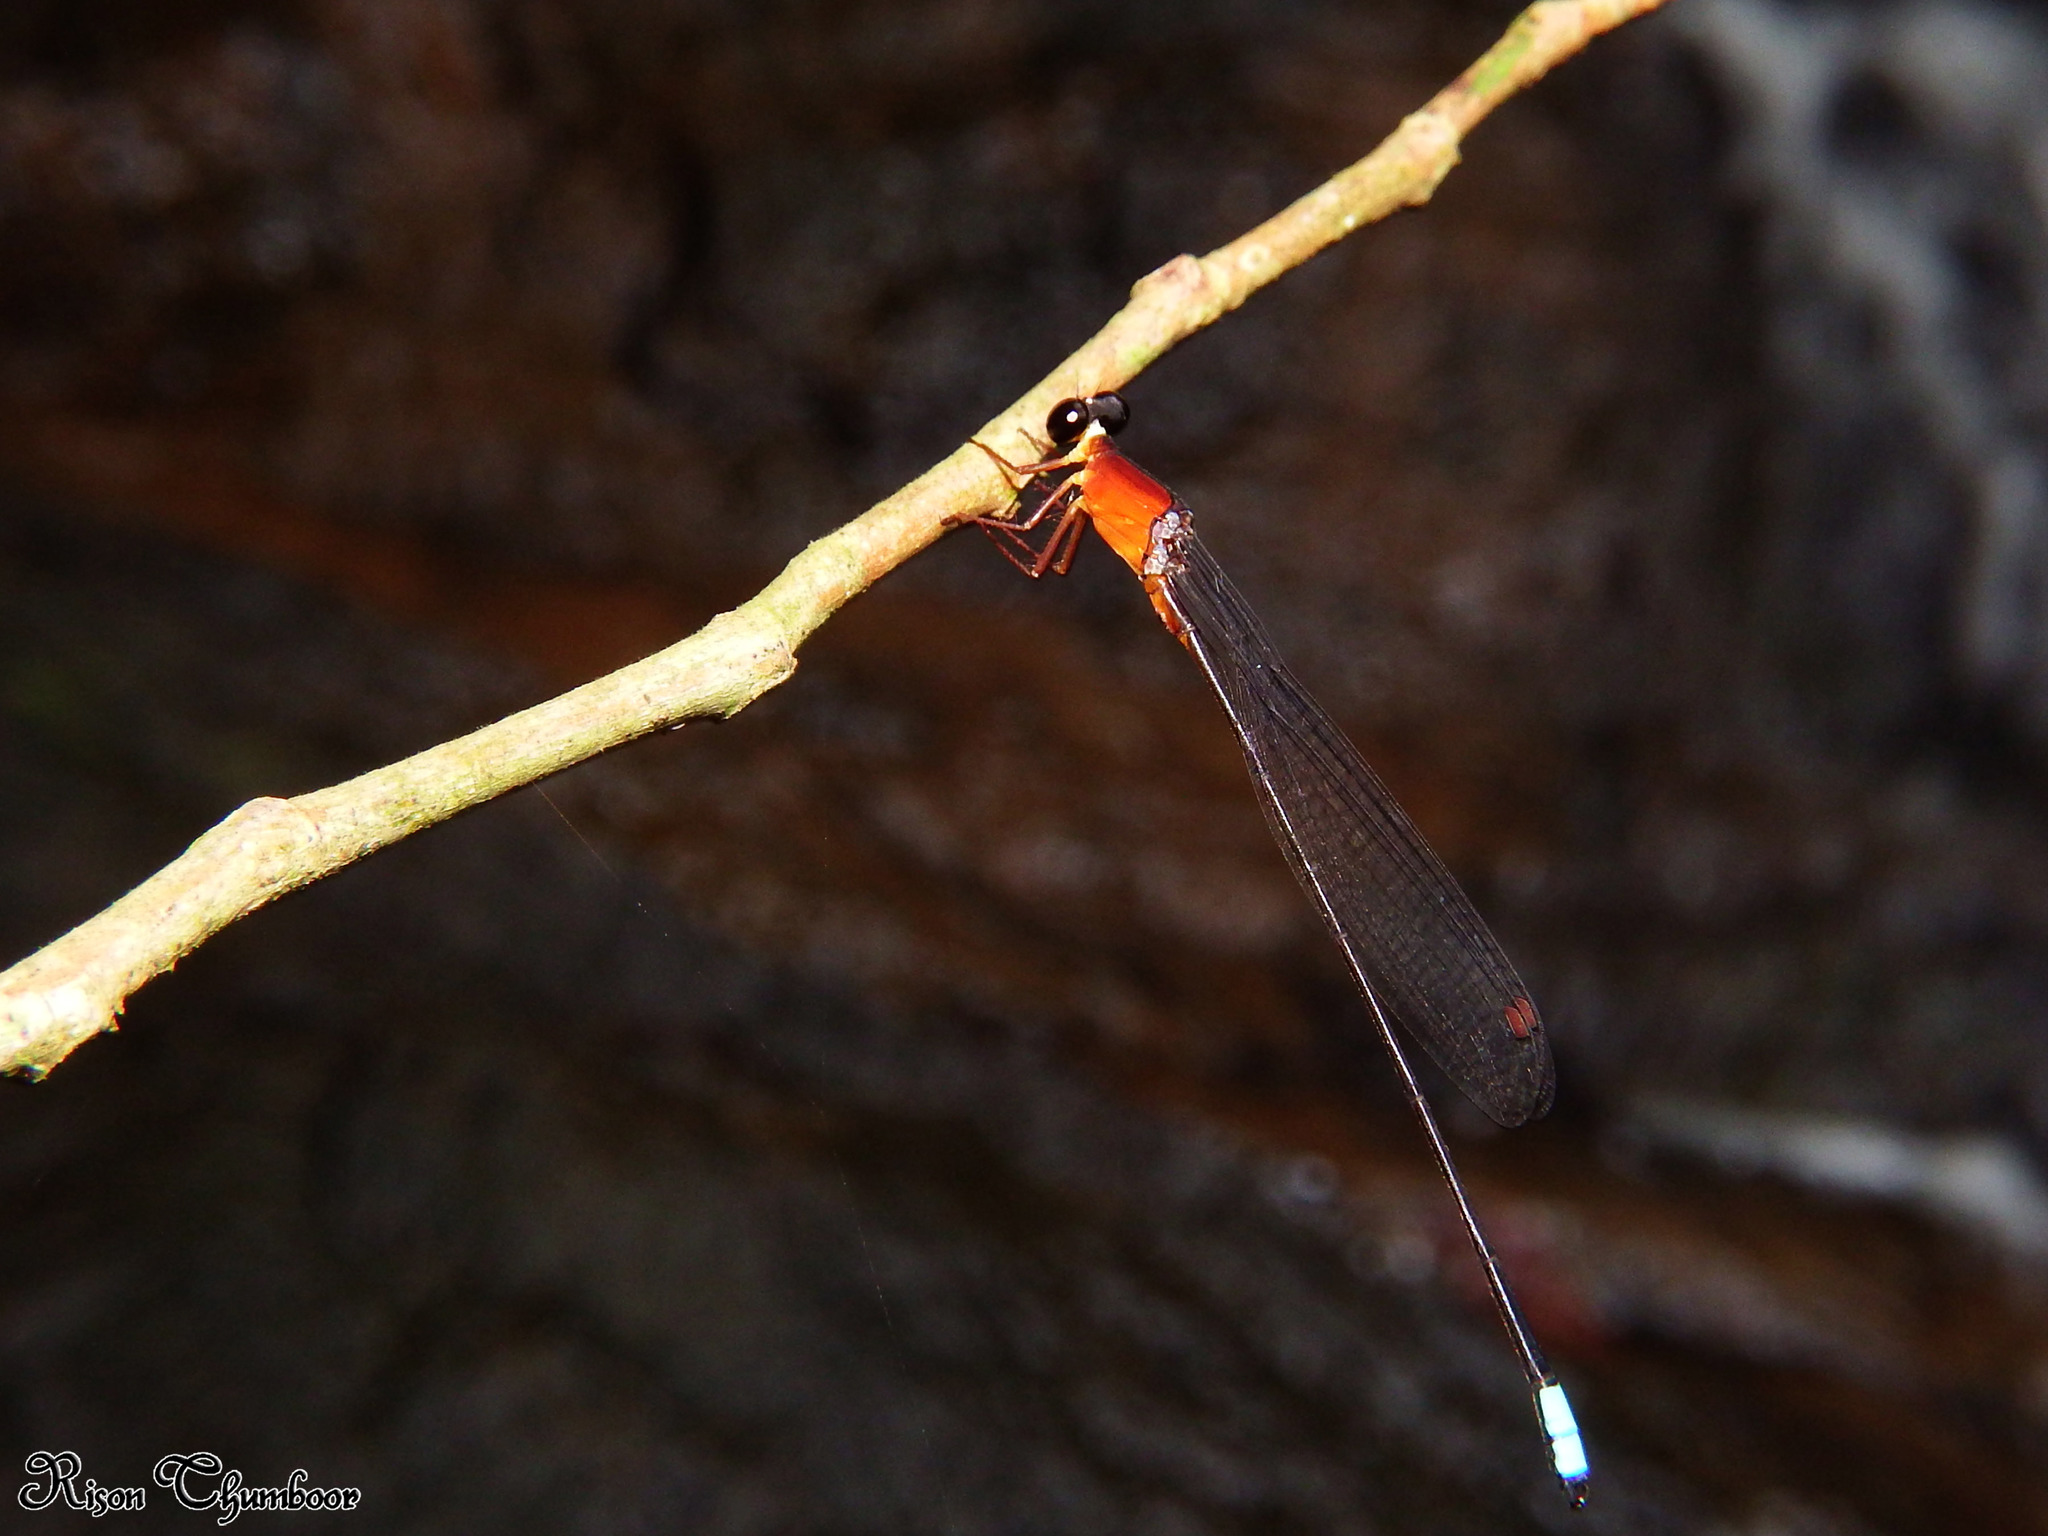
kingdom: Animalia
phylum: Arthropoda
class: Insecta
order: Odonata
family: Platystictidae
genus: Indosticta
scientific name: Indosticta deccanensis
